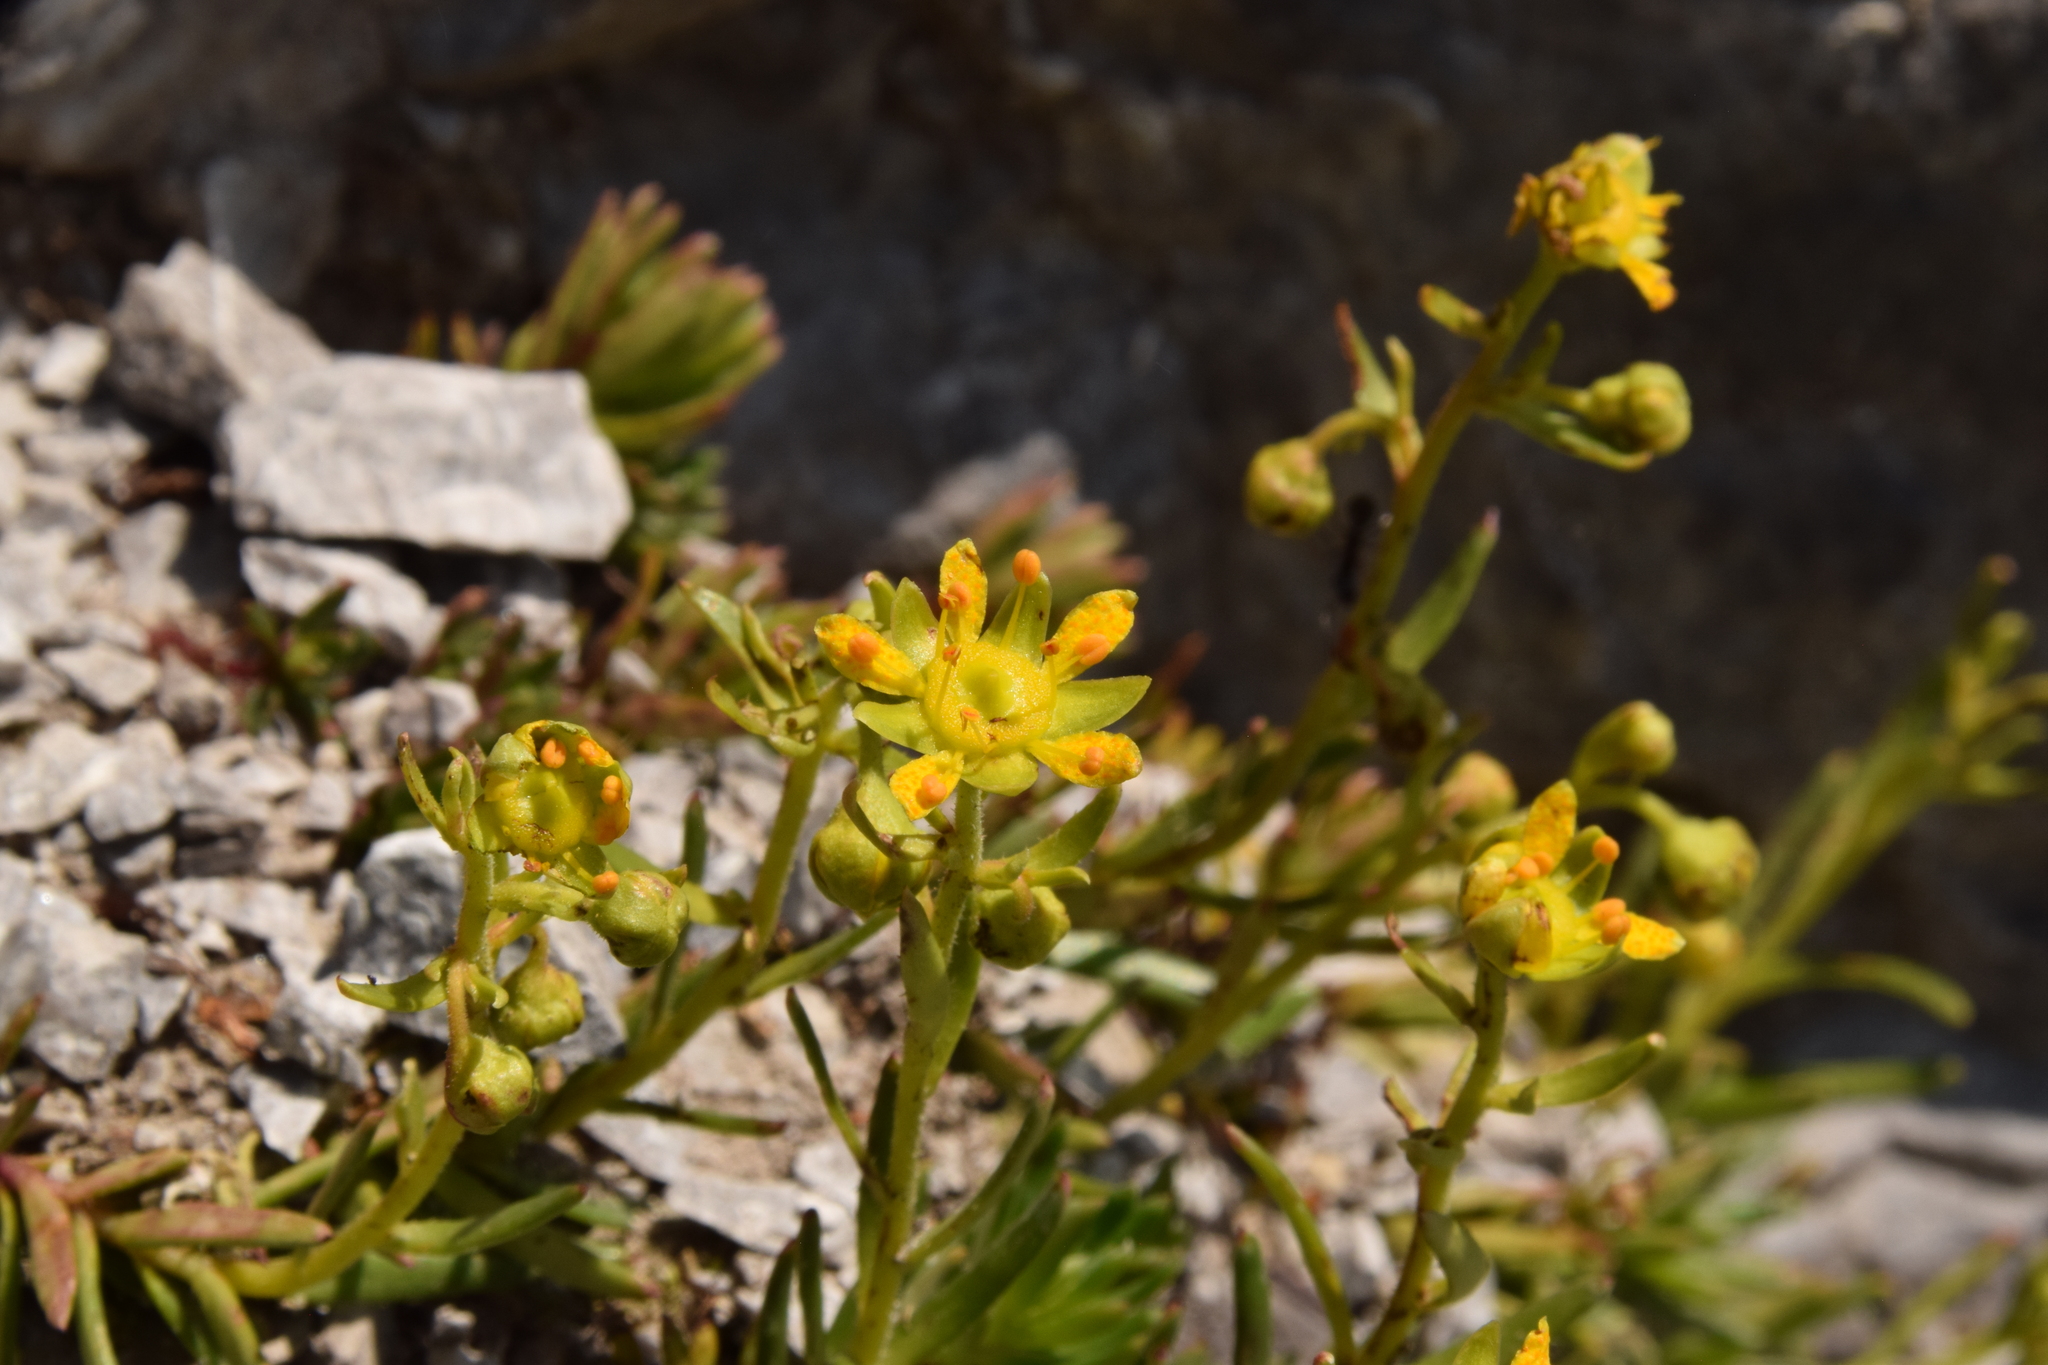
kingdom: Plantae
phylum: Tracheophyta
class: Magnoliopsida
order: Saxifragales
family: Saxifragaceae
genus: Saxifraga
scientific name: Saxifraga aizoides
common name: Yellow mountain saxifrage
